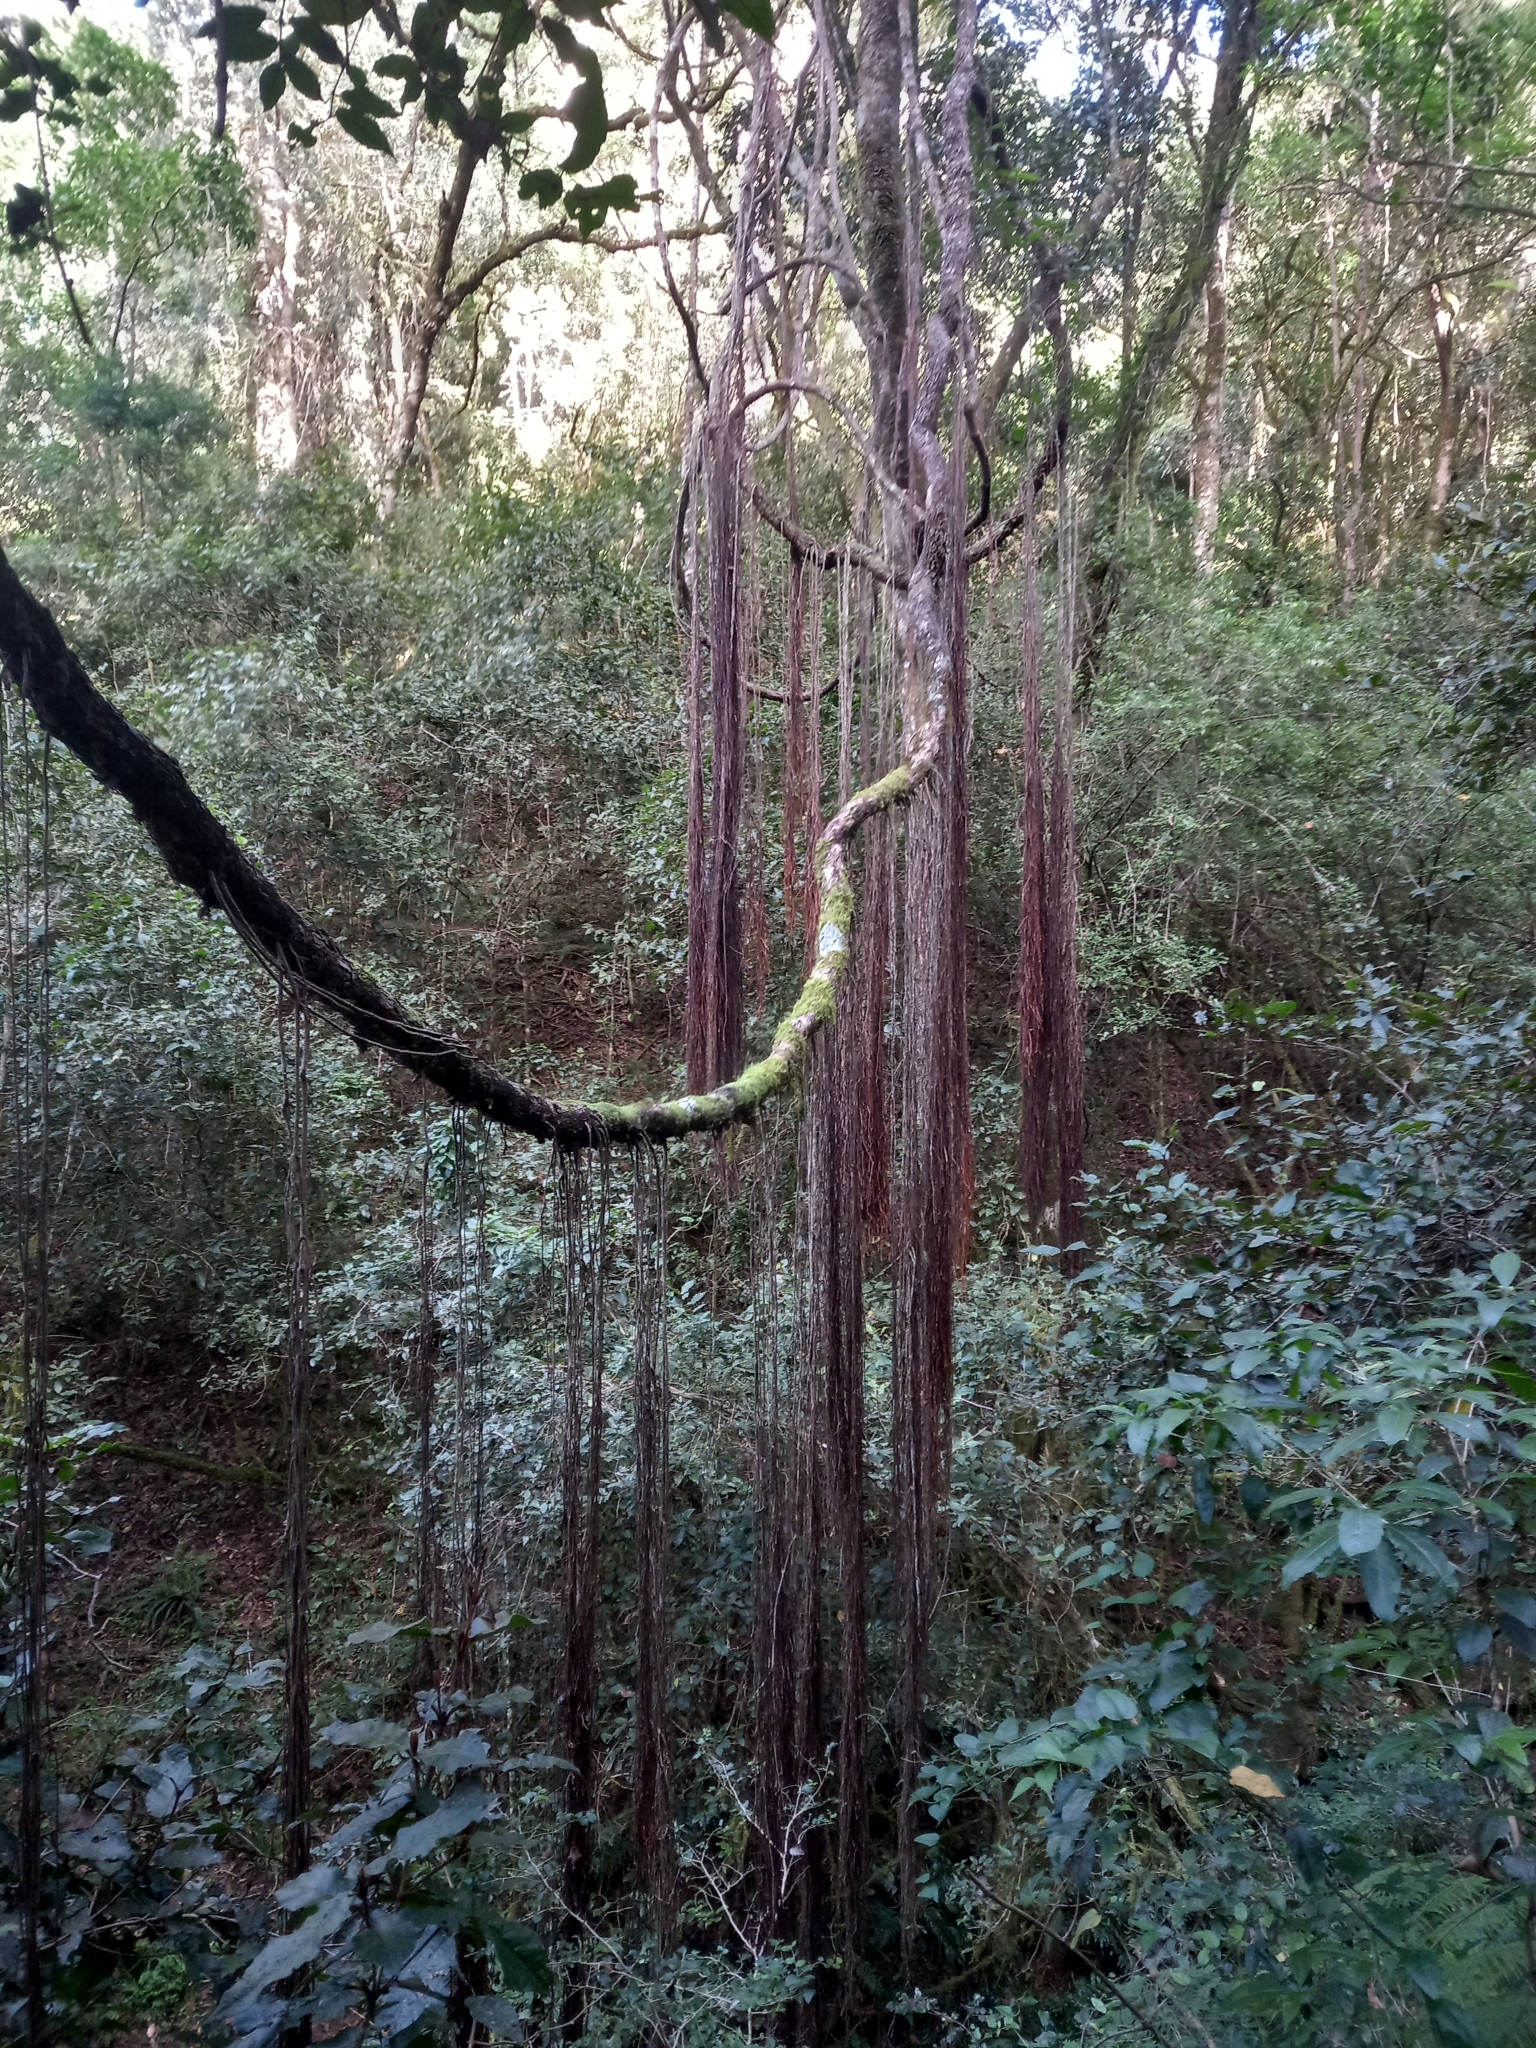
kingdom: Plantae
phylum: Tracheophyta
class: Magnoliopsida
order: Vitales
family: Vitaceae
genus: Rhoicissus
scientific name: Rhoicissus tomentosa
